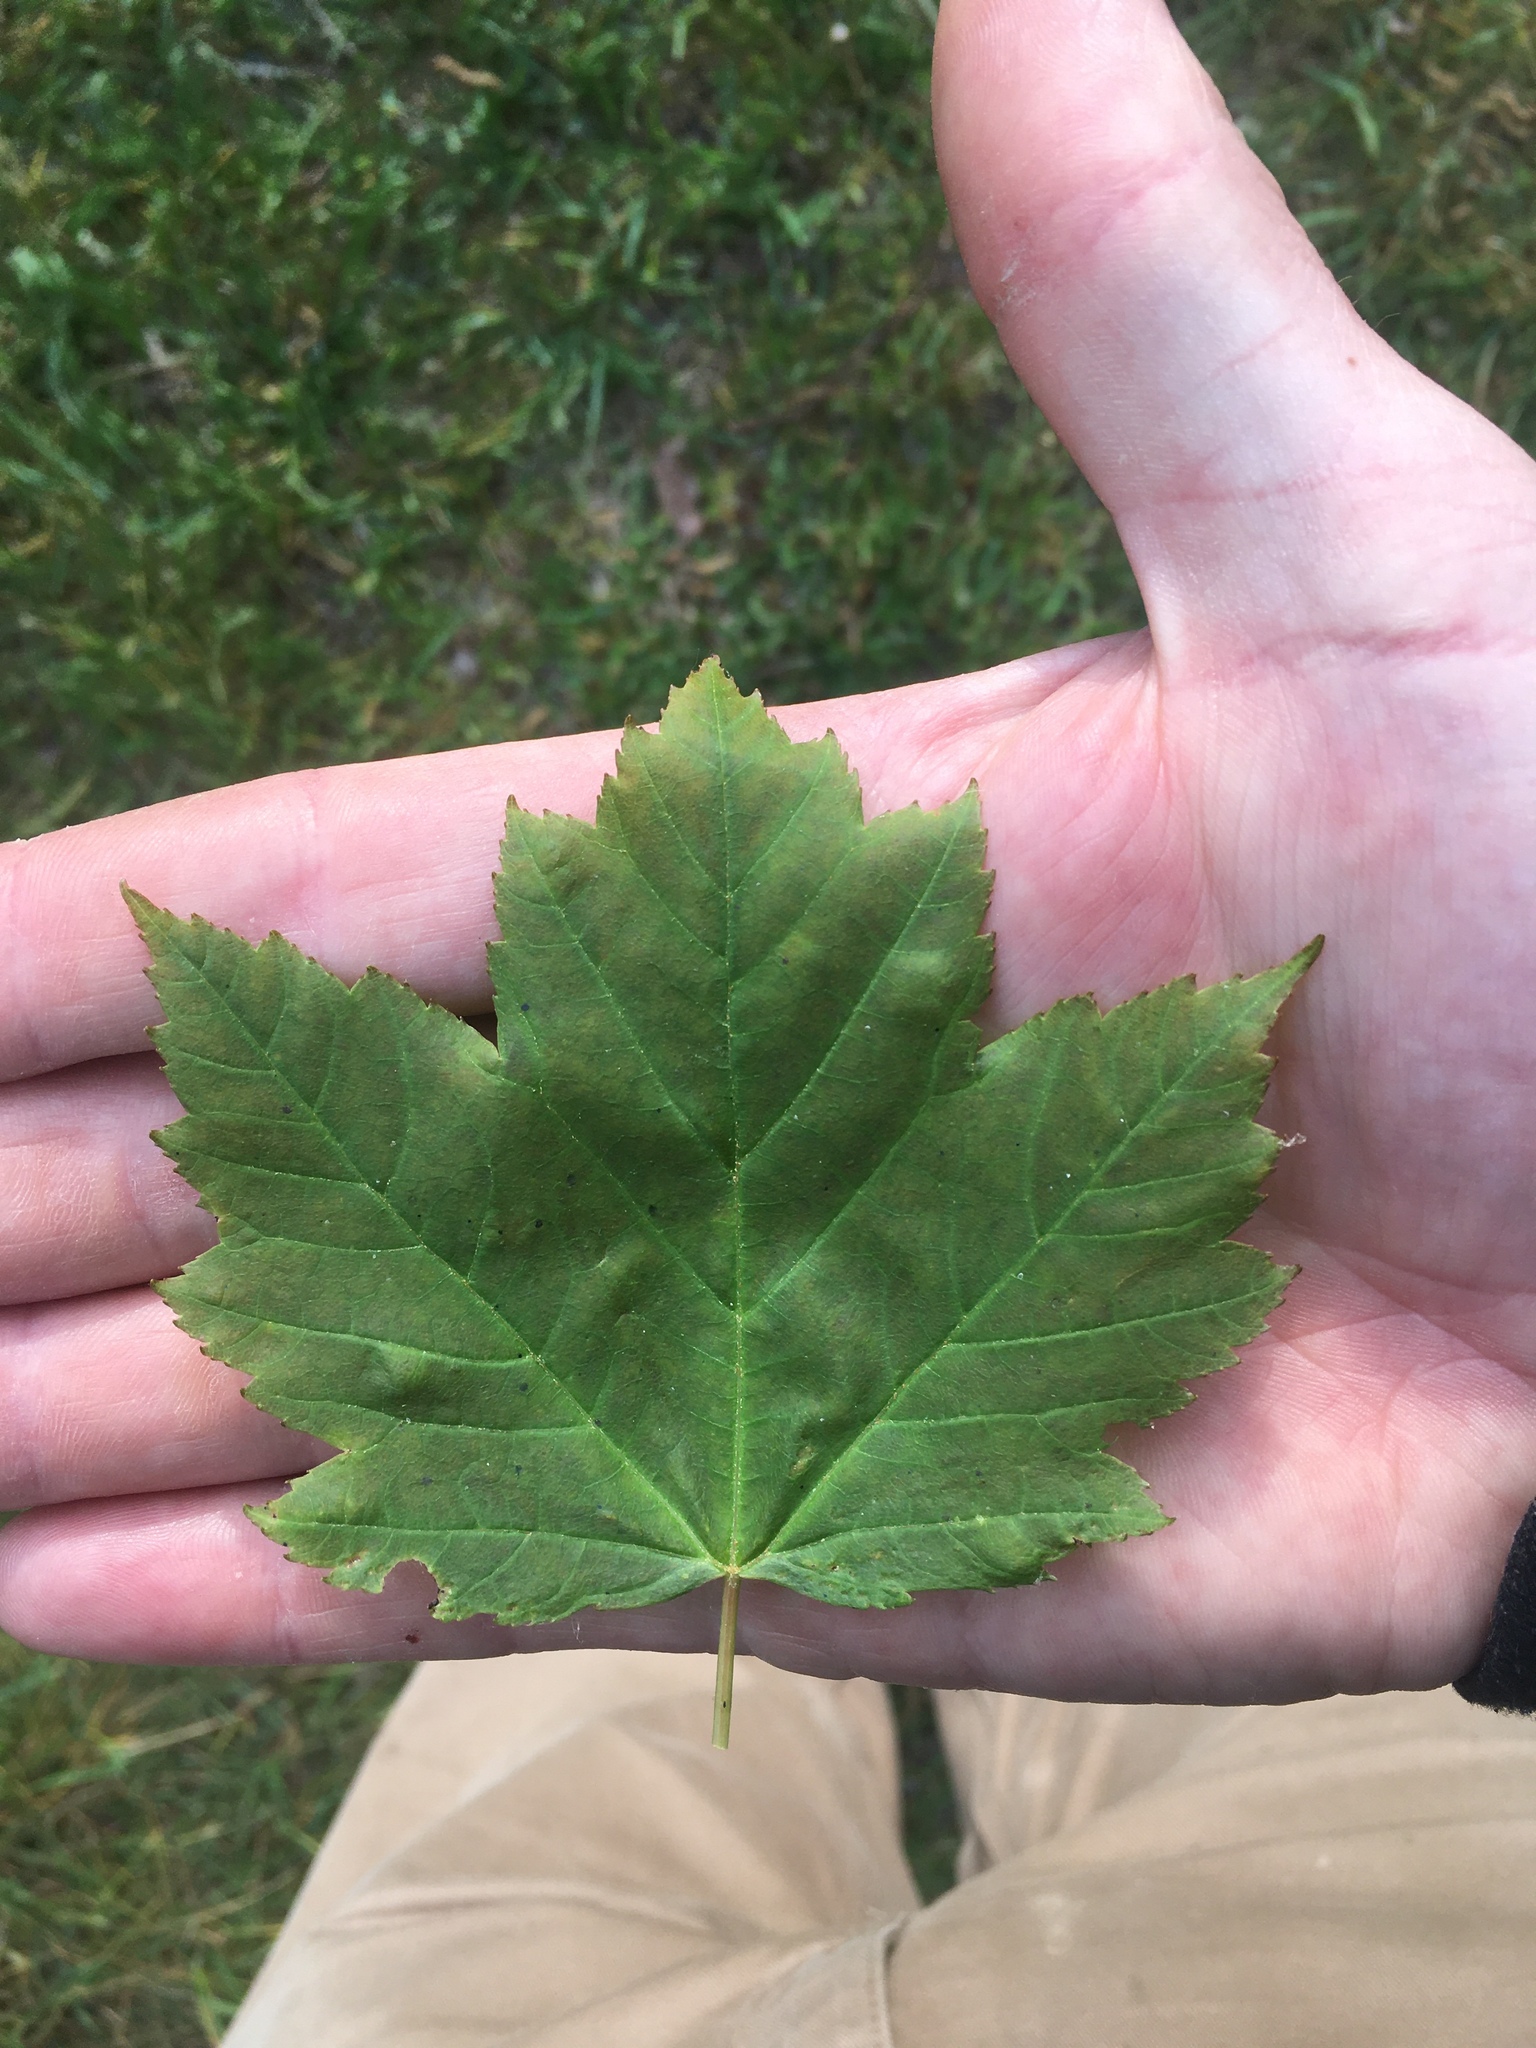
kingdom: Plantae
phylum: Tracheophyta
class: Magnoliopsida
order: Sapindales
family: Sapindaceae
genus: Acer
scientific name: Acer rubrum
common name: Red maple
